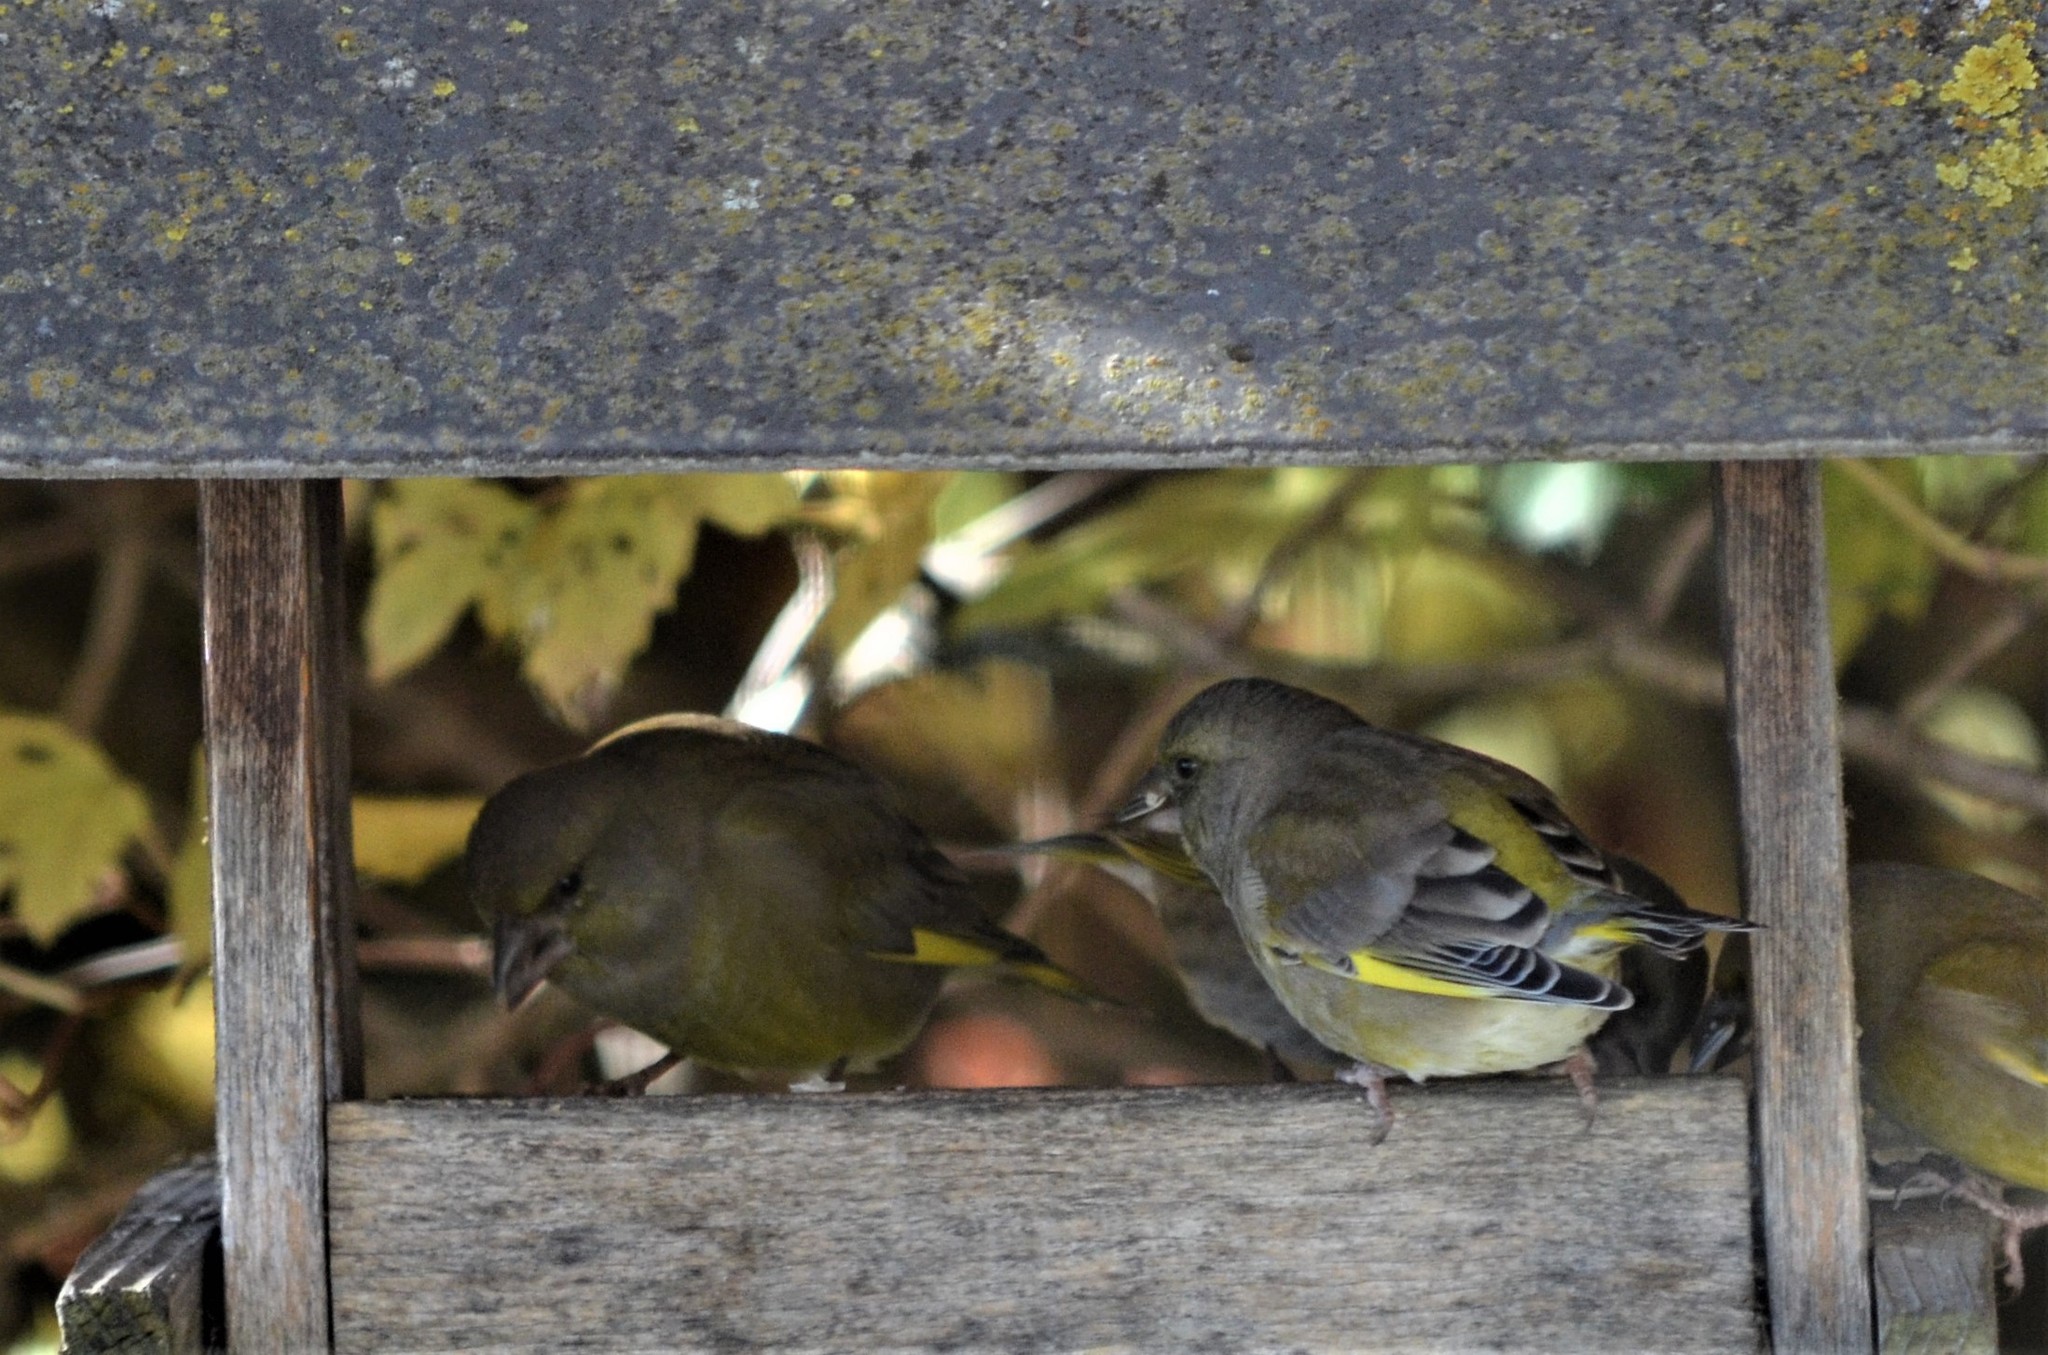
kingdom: Plantae
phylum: Tracheophyta
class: Liliopsida
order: Poales
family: Poaceae
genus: Chloris
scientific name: Chloris chloris
